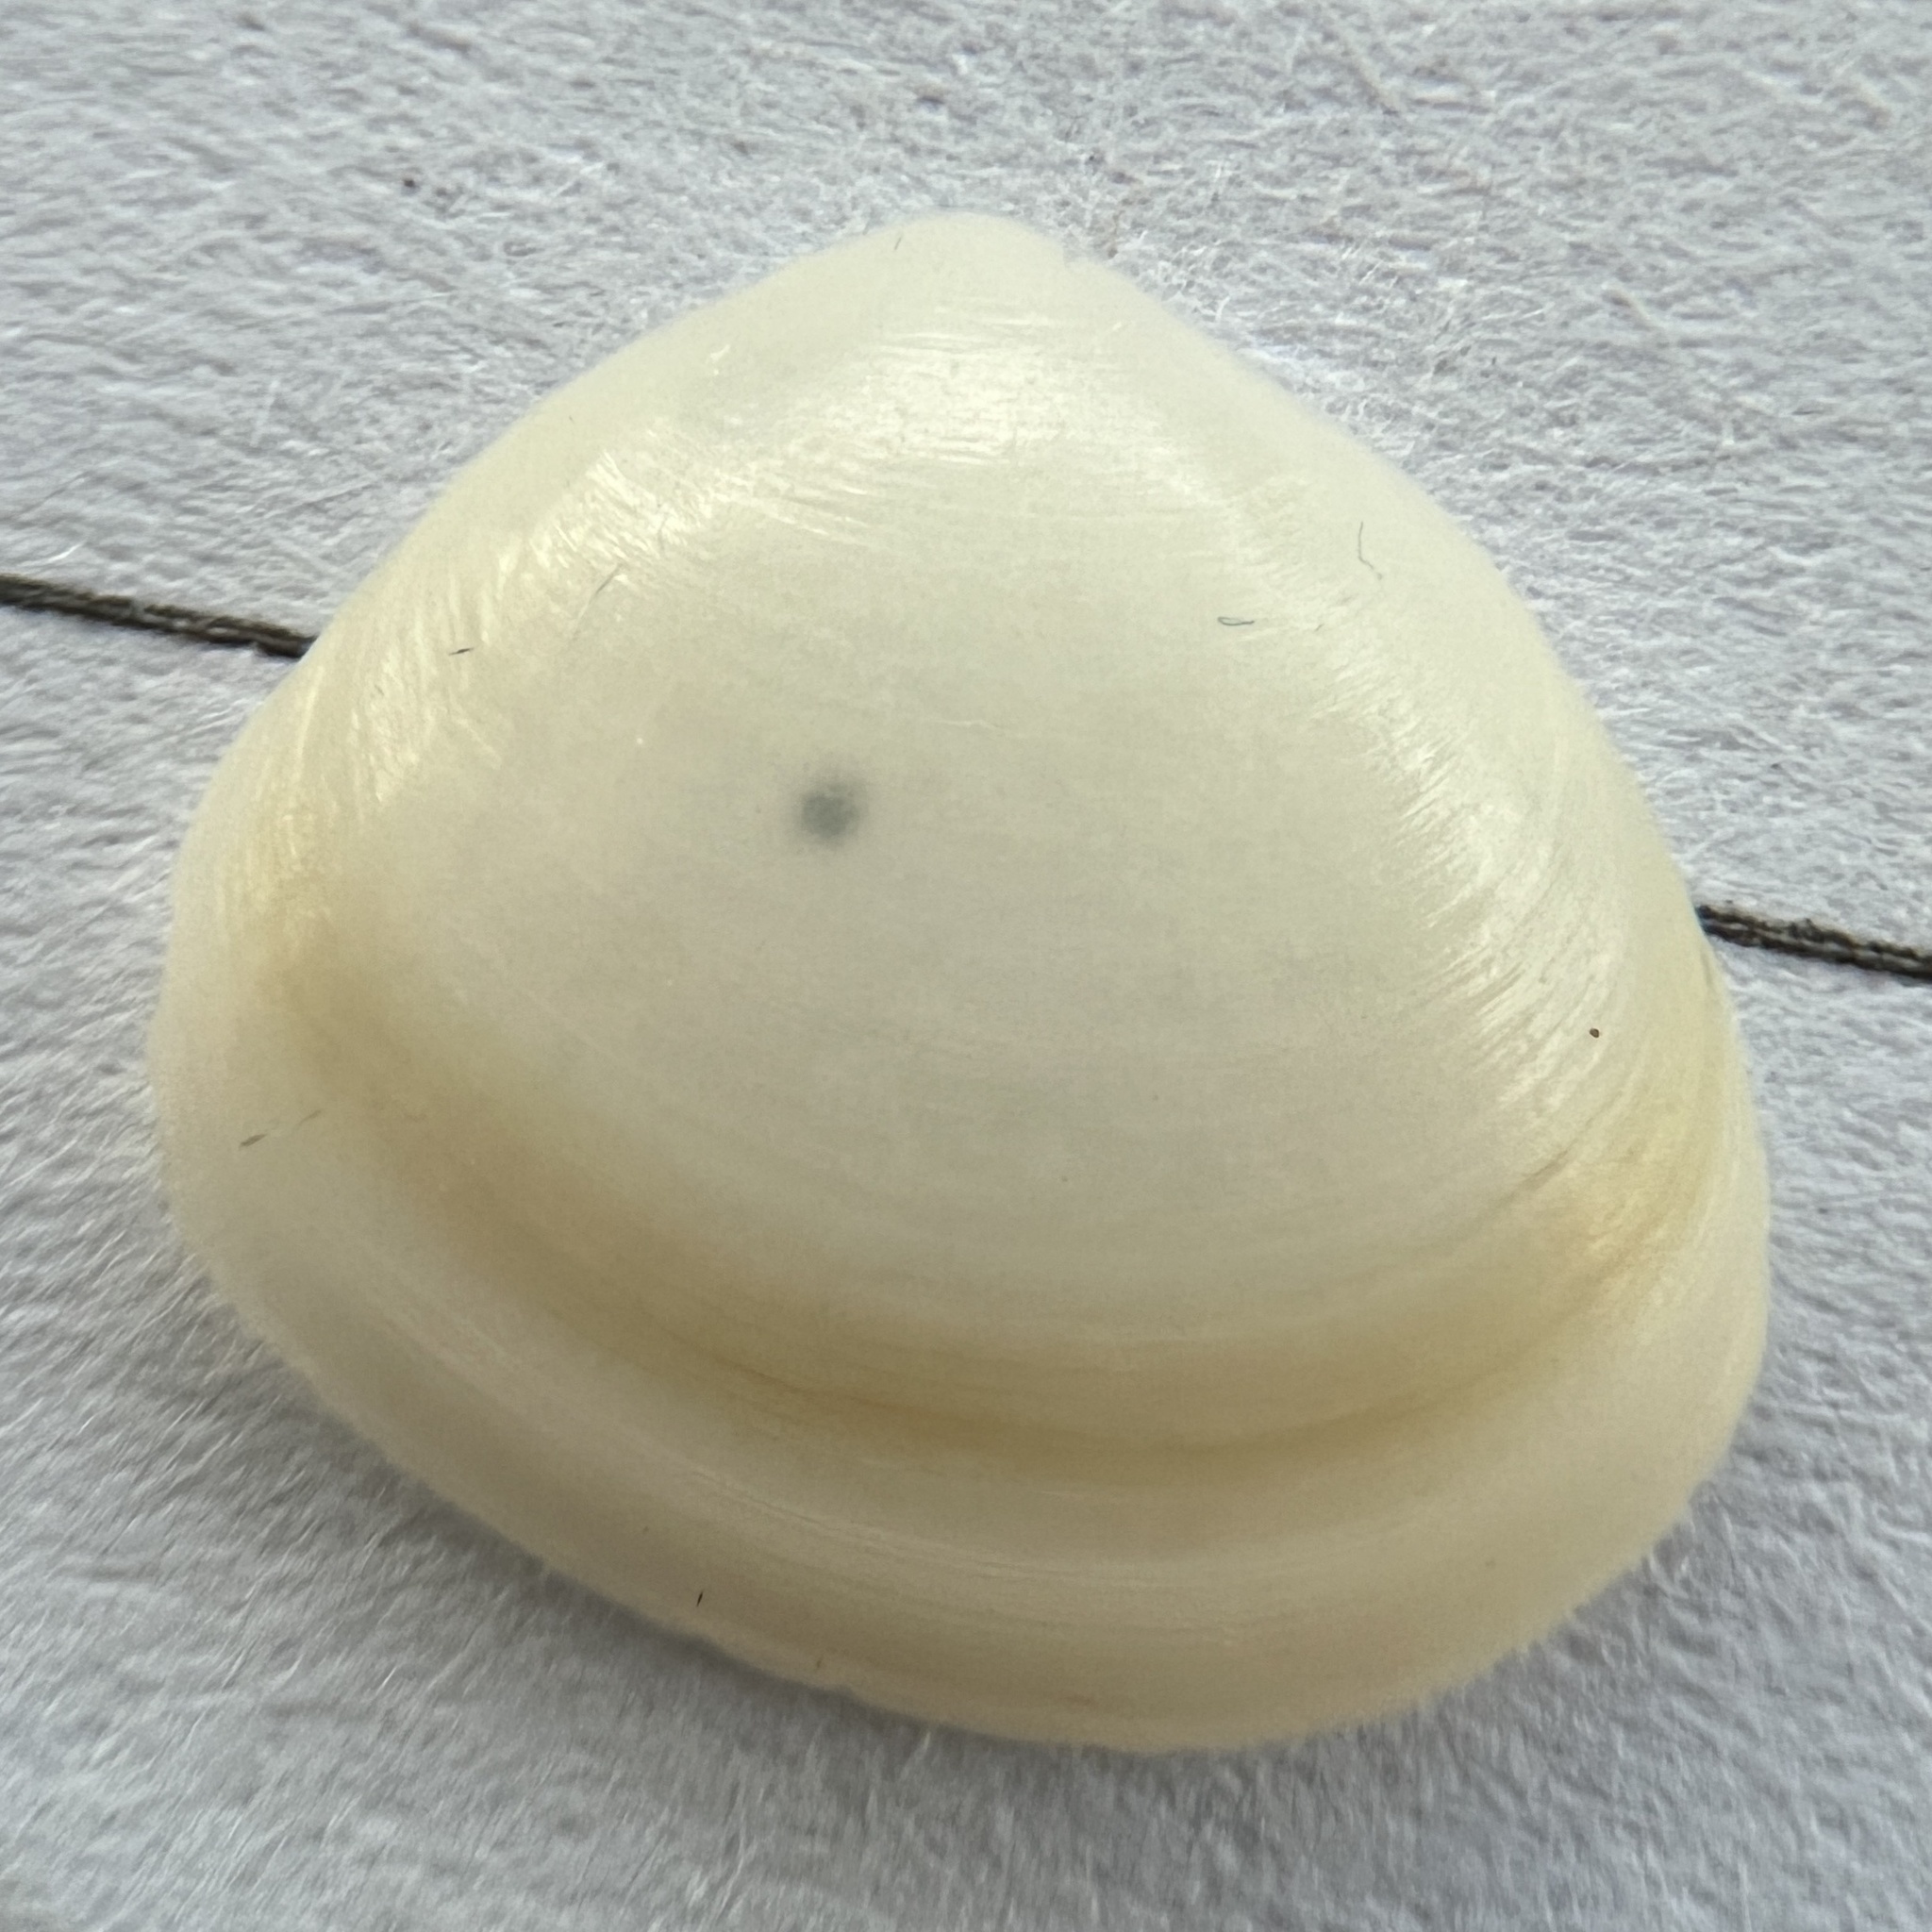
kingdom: Animalia
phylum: Mollusca
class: Bivalvia
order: Cardiida
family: Semelidae
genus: Abra
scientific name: Abra aequalis
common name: Common atlantic abra
